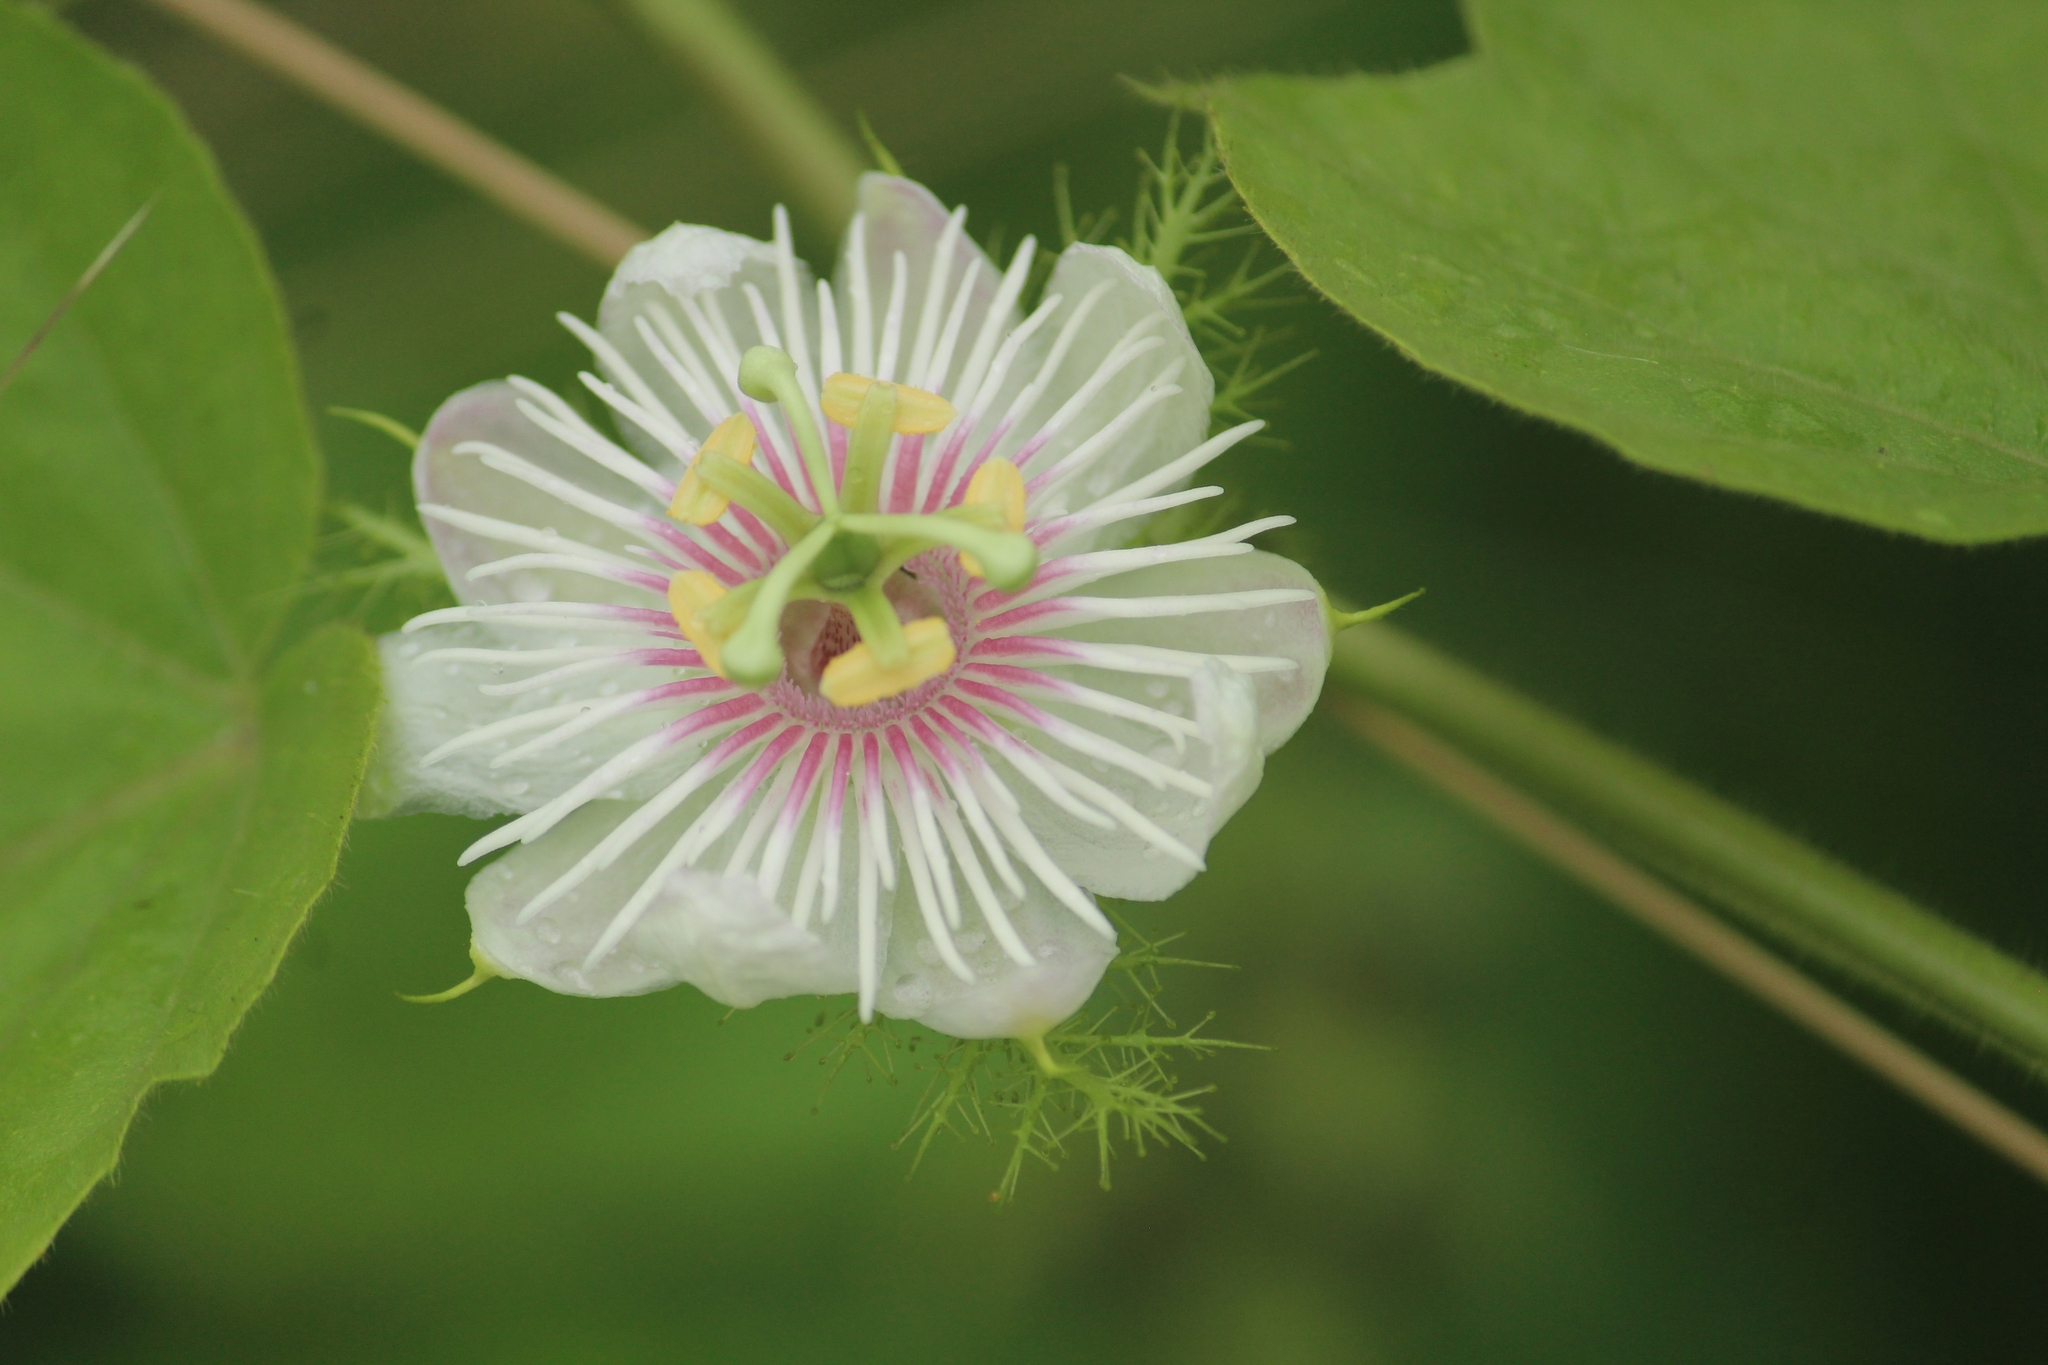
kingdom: Plantae
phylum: Tracheophyta
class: Magnoliopsida
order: Malpighiales
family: Passifloraceae
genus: Passiflora
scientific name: Passiflora foetida
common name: Fetid passionflower
